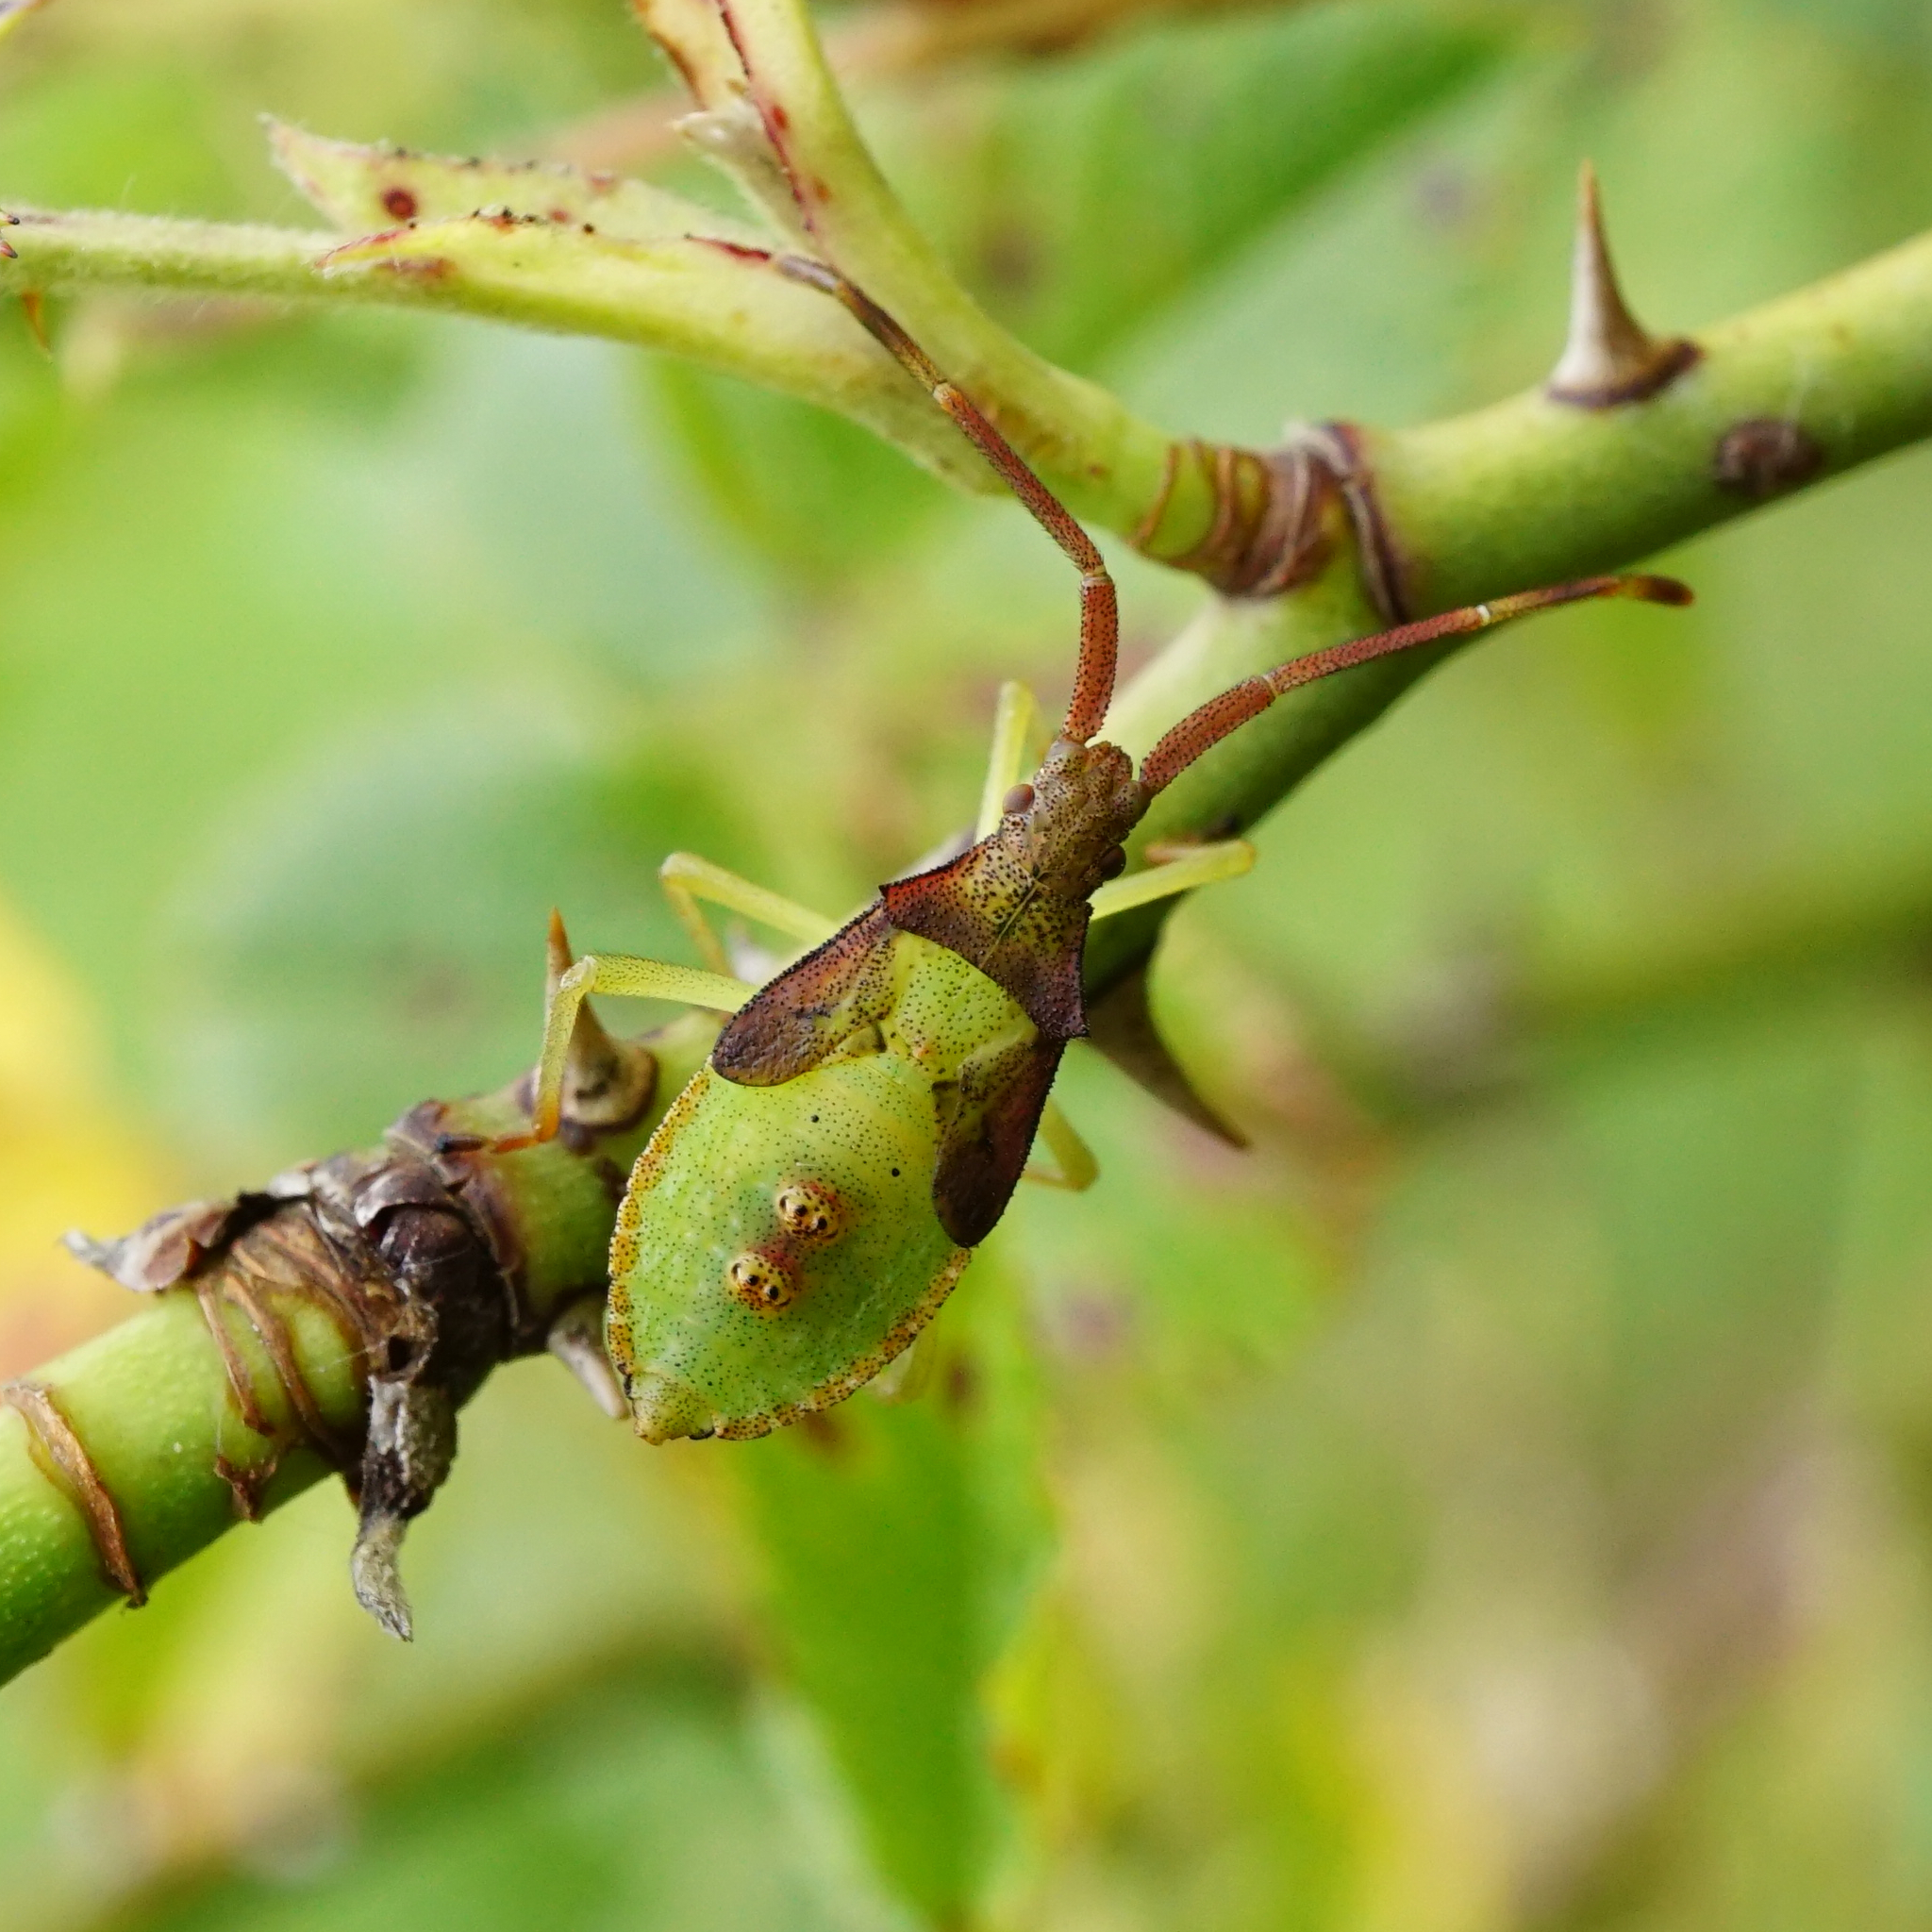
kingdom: Animalia
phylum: Arthropoda
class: Insecta
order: Hemiptera
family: Coreidae
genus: Gonocerus
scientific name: Gonocerus acuteangulatus
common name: Box bug
